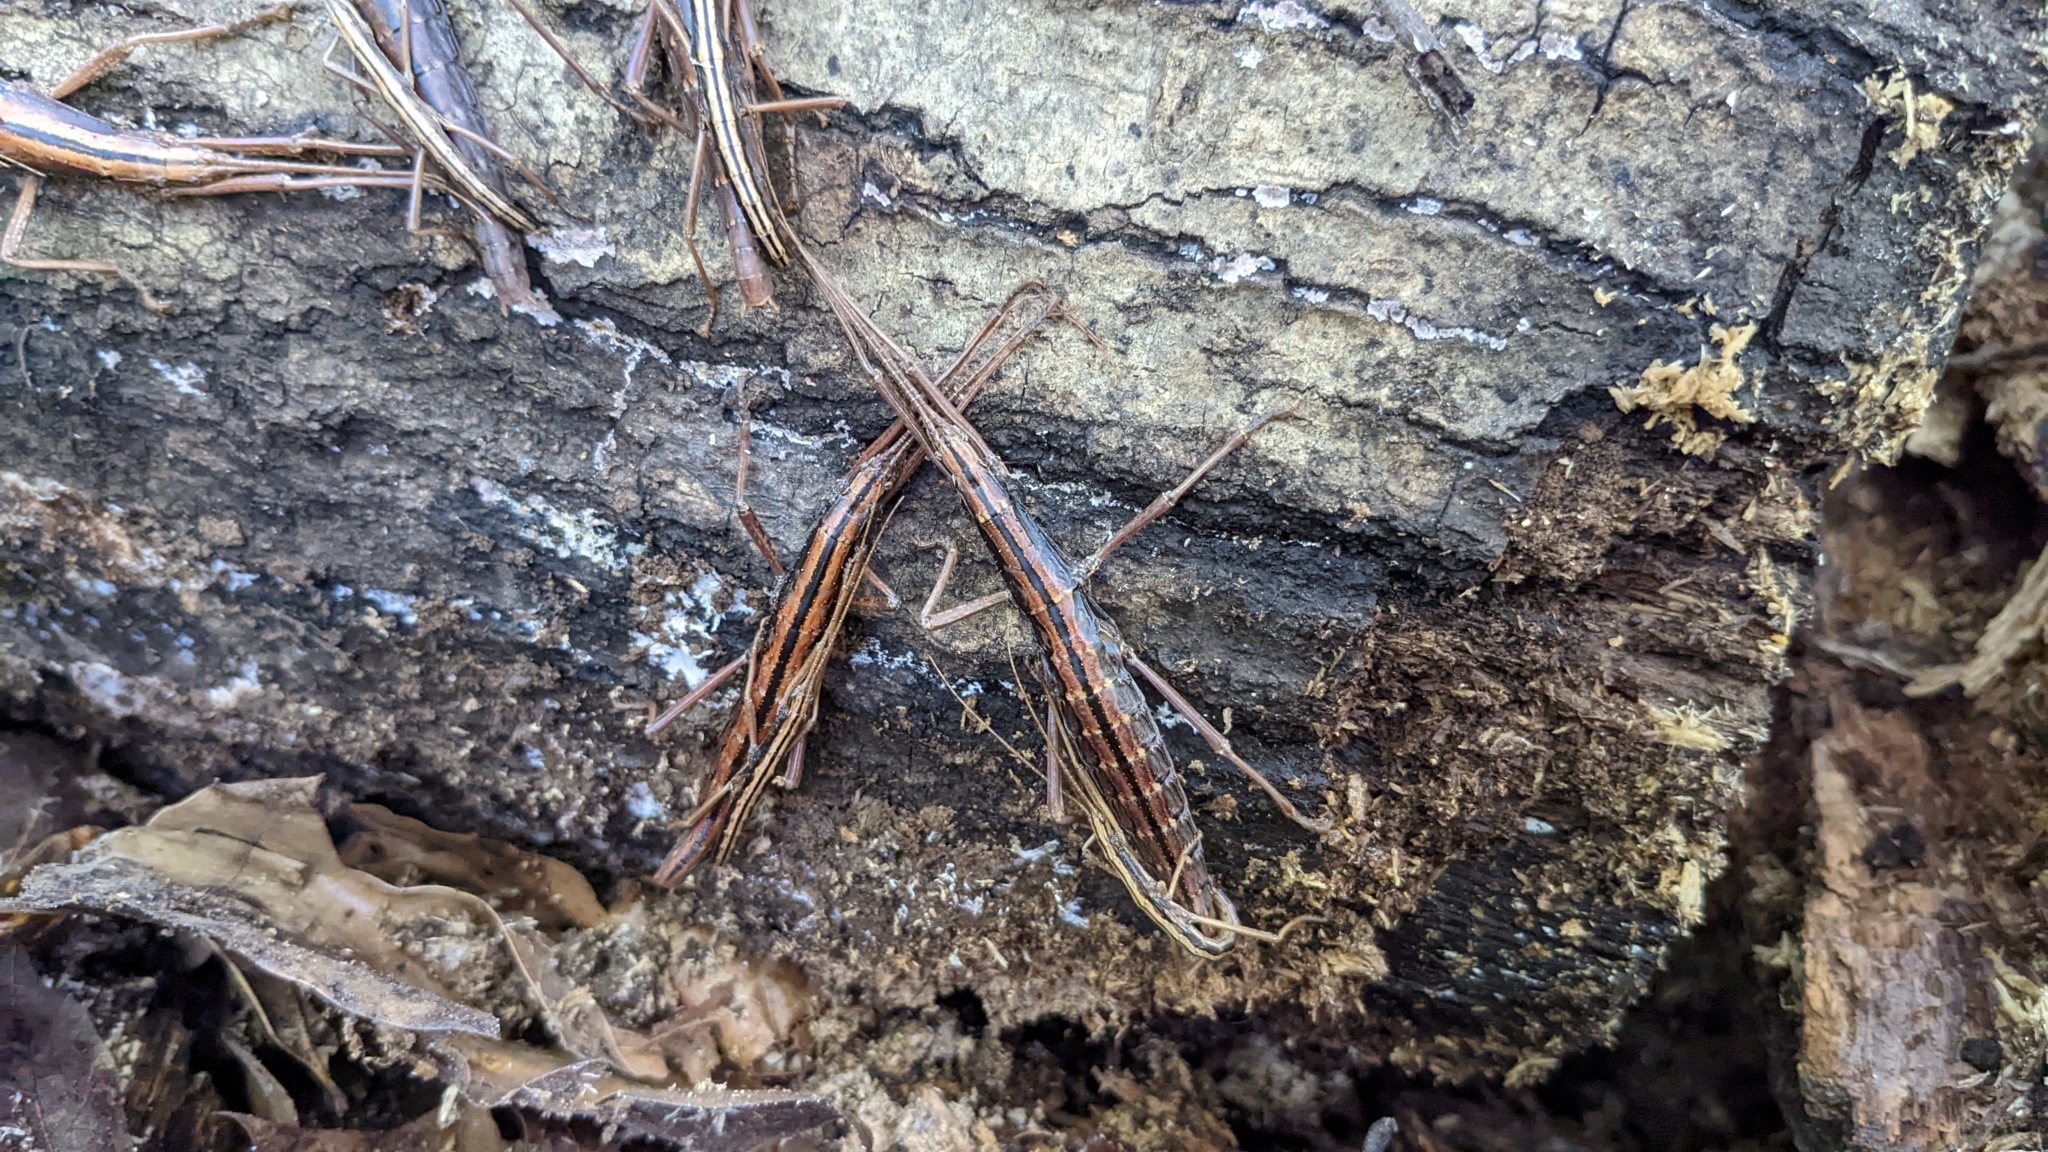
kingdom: Animalia
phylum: Arthropoda
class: Insecta
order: Phasmida
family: Pseudophasmatidae
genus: Anisomorpha
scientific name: Anisomorpha buprestoides
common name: Florida stick insect
